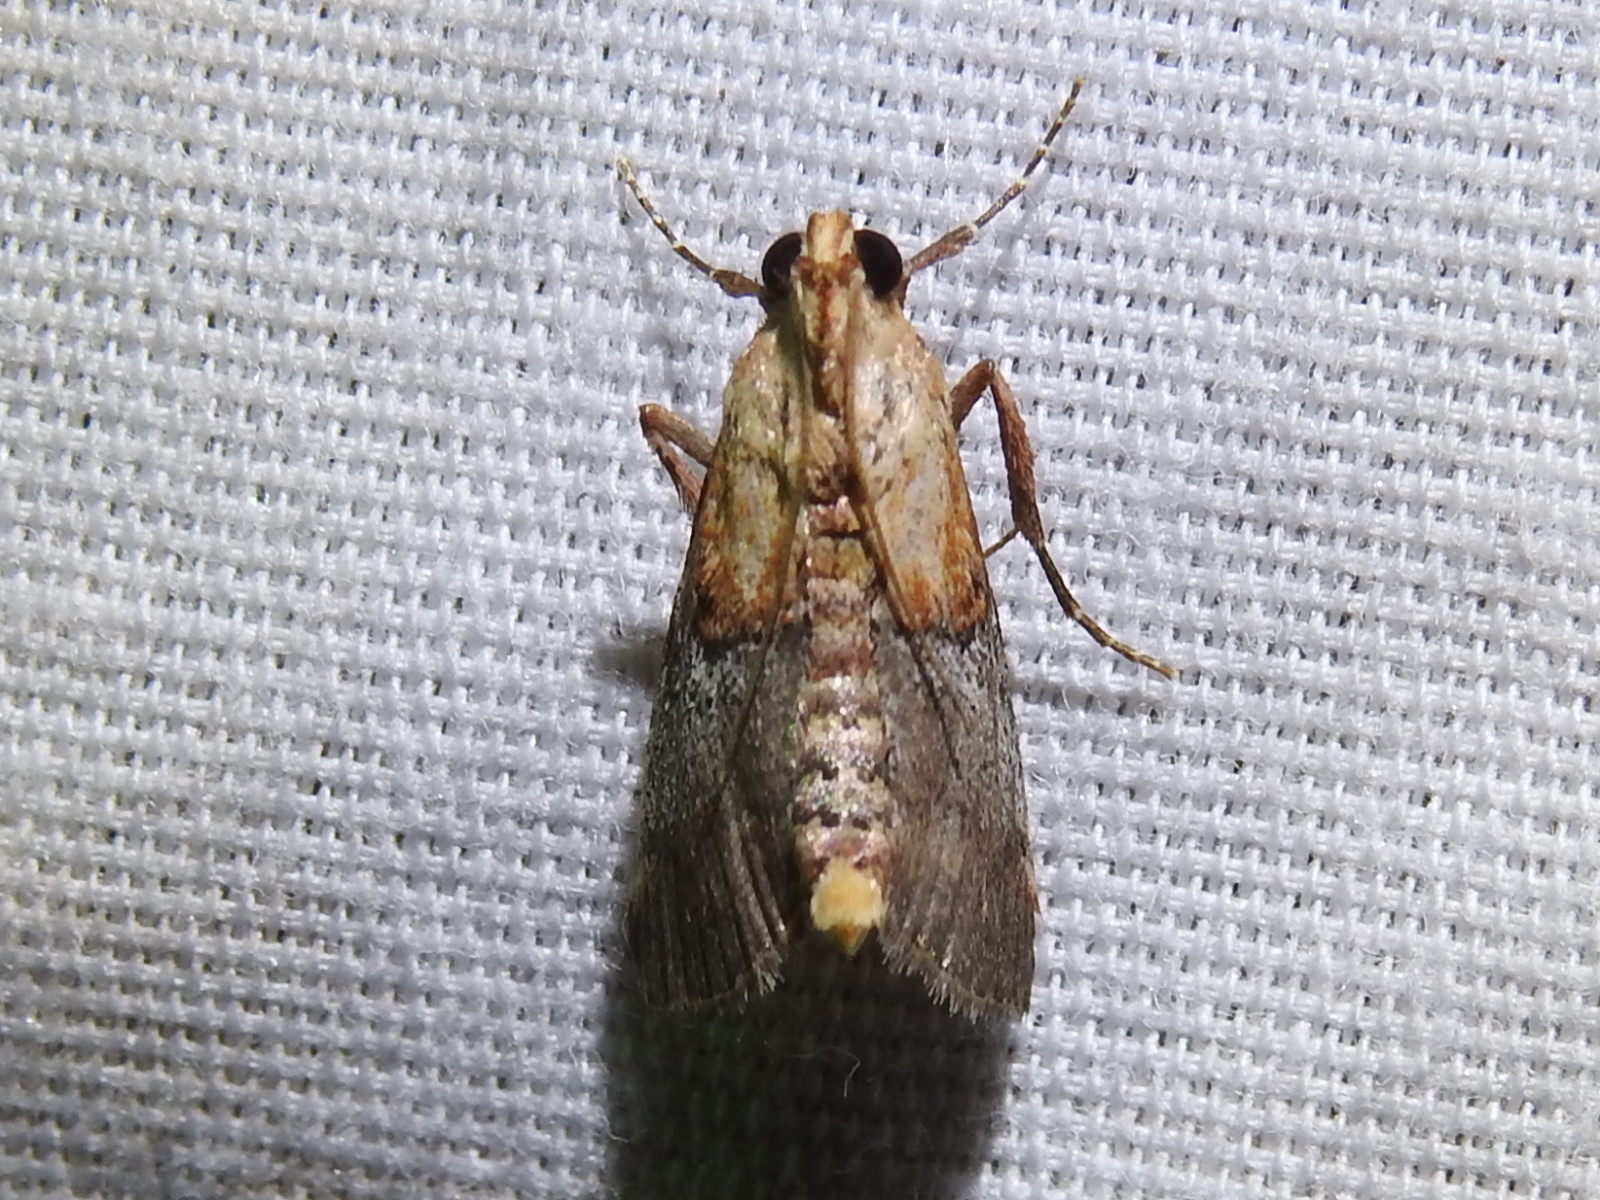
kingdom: Animalia
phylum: Arthropoda
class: Insecta
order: Lepidoptera
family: Pyralidae
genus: Cacozelia
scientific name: Cacozelia basiochrealis
